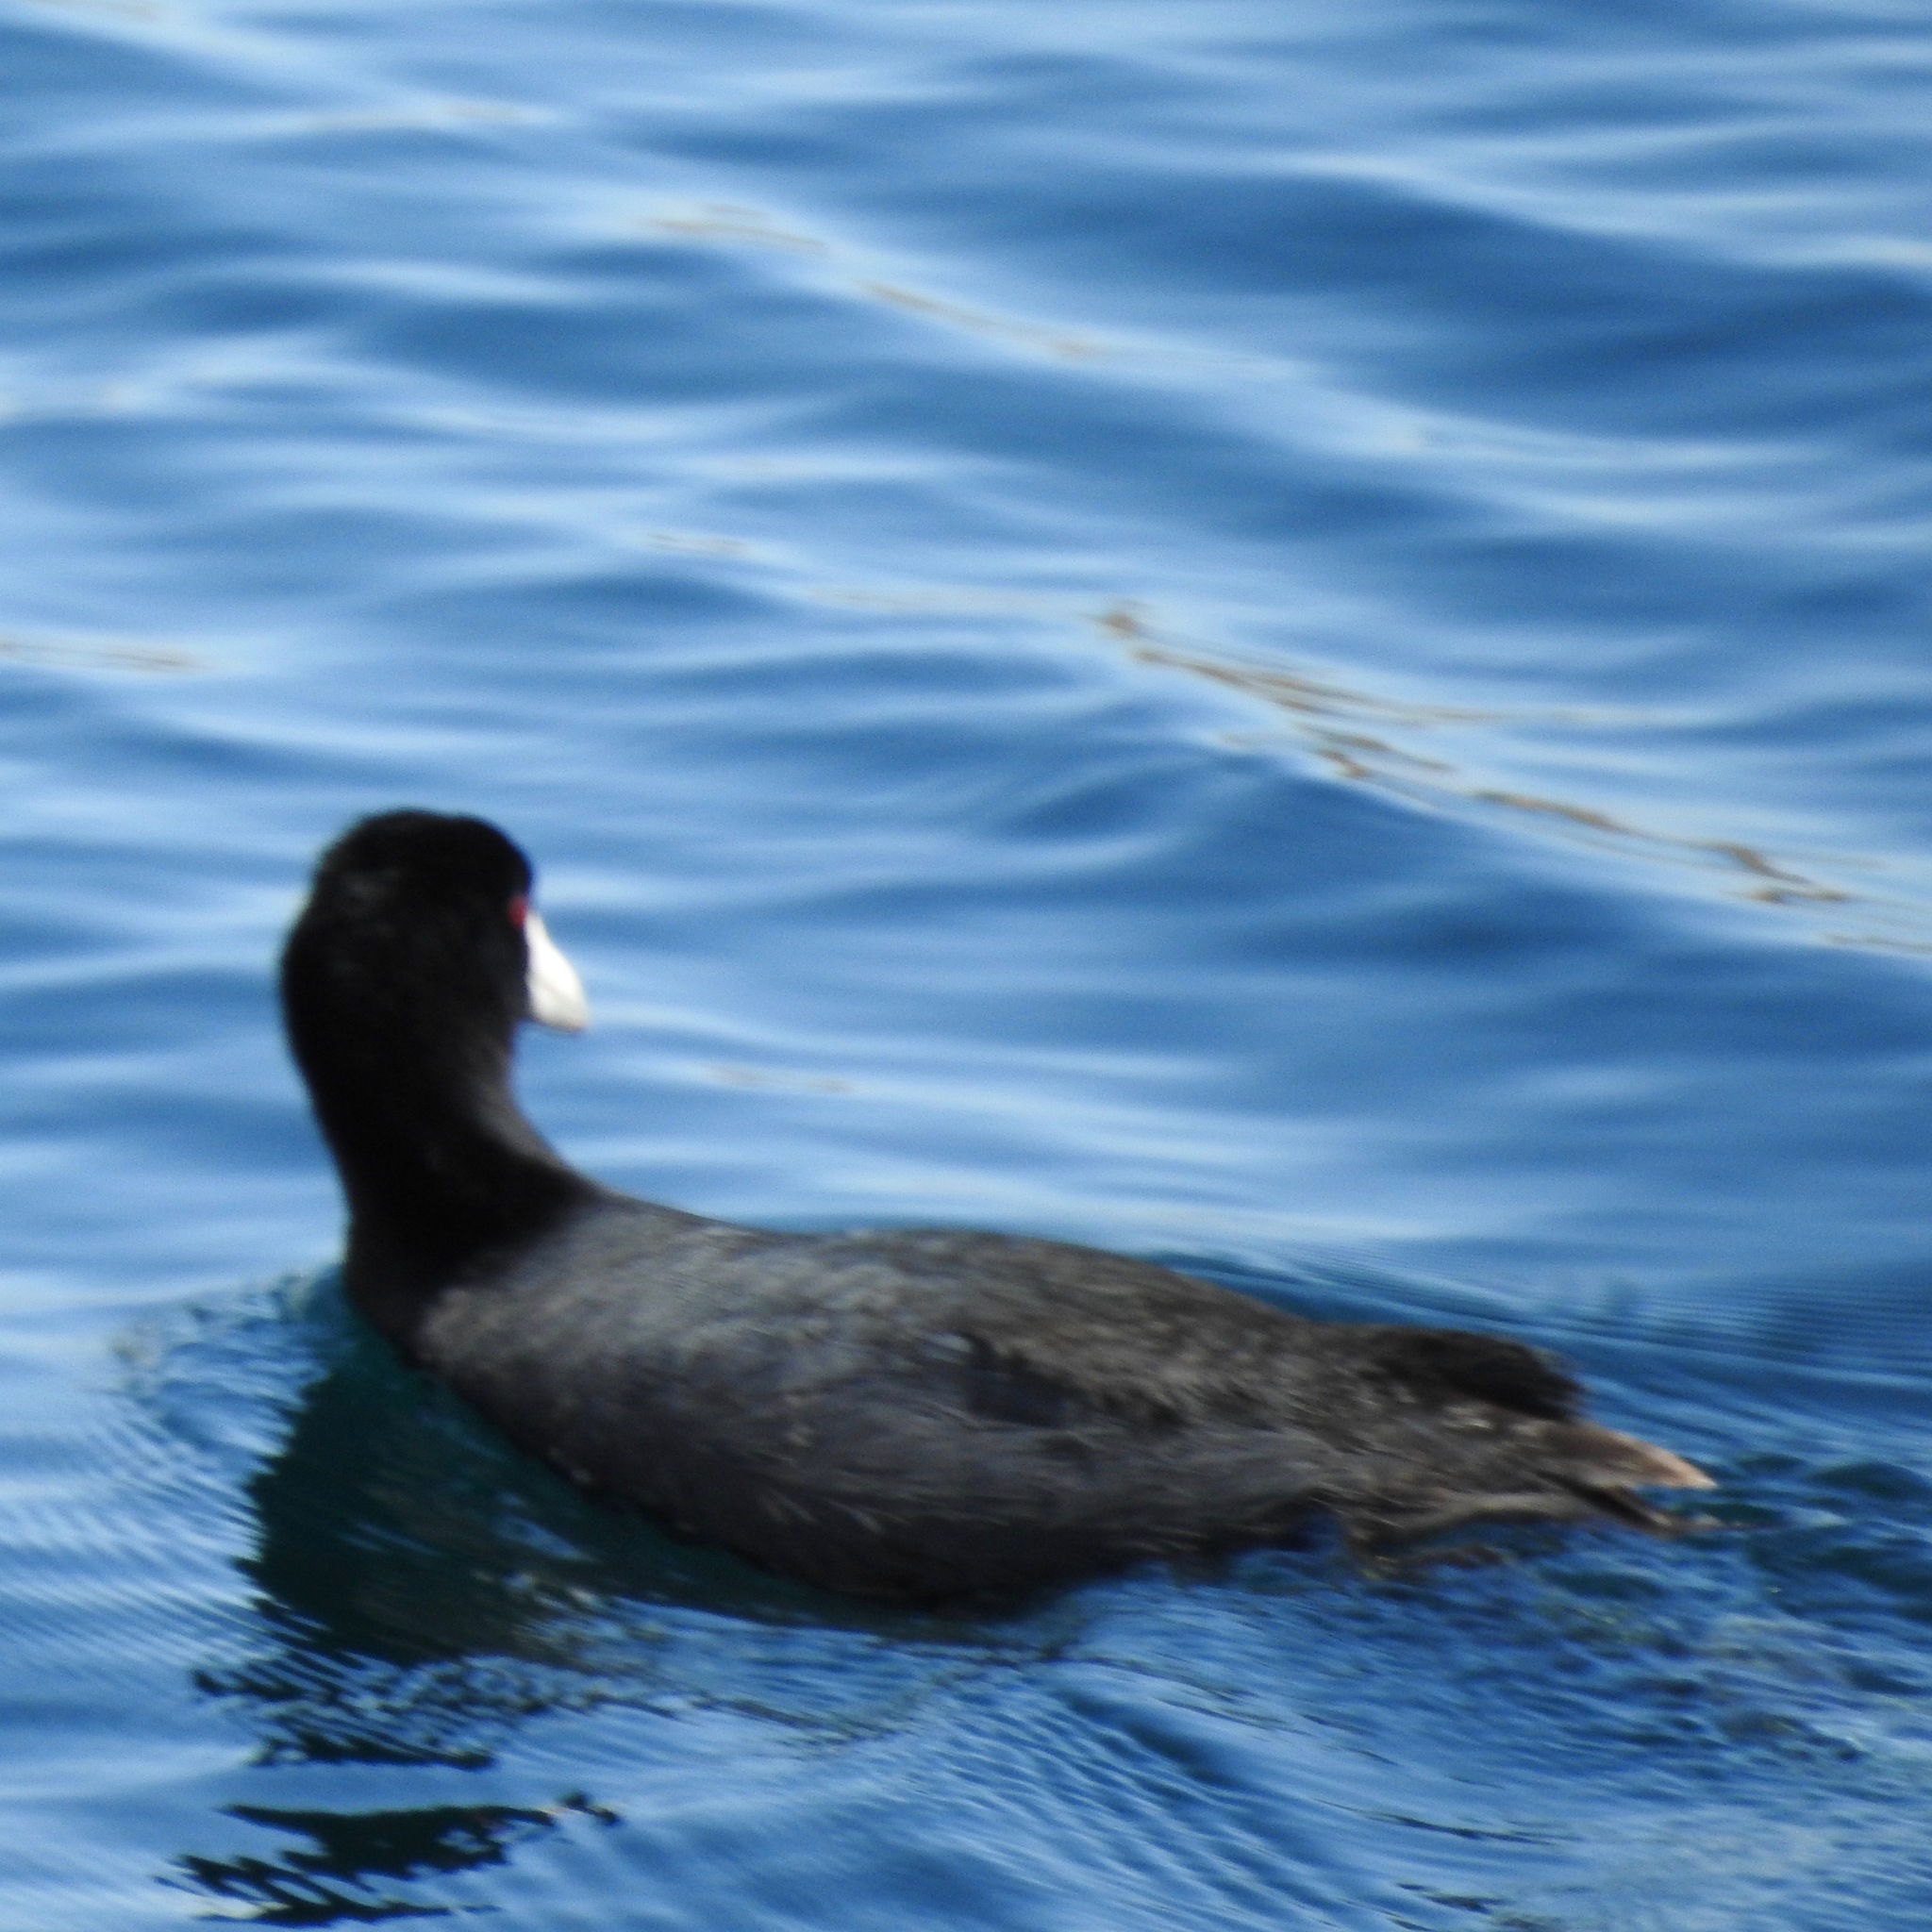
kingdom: Animalia
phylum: Chordata
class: Aves
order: Gruiformes
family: Rallidae
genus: Fulica
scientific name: Fulica americana
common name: American coot
